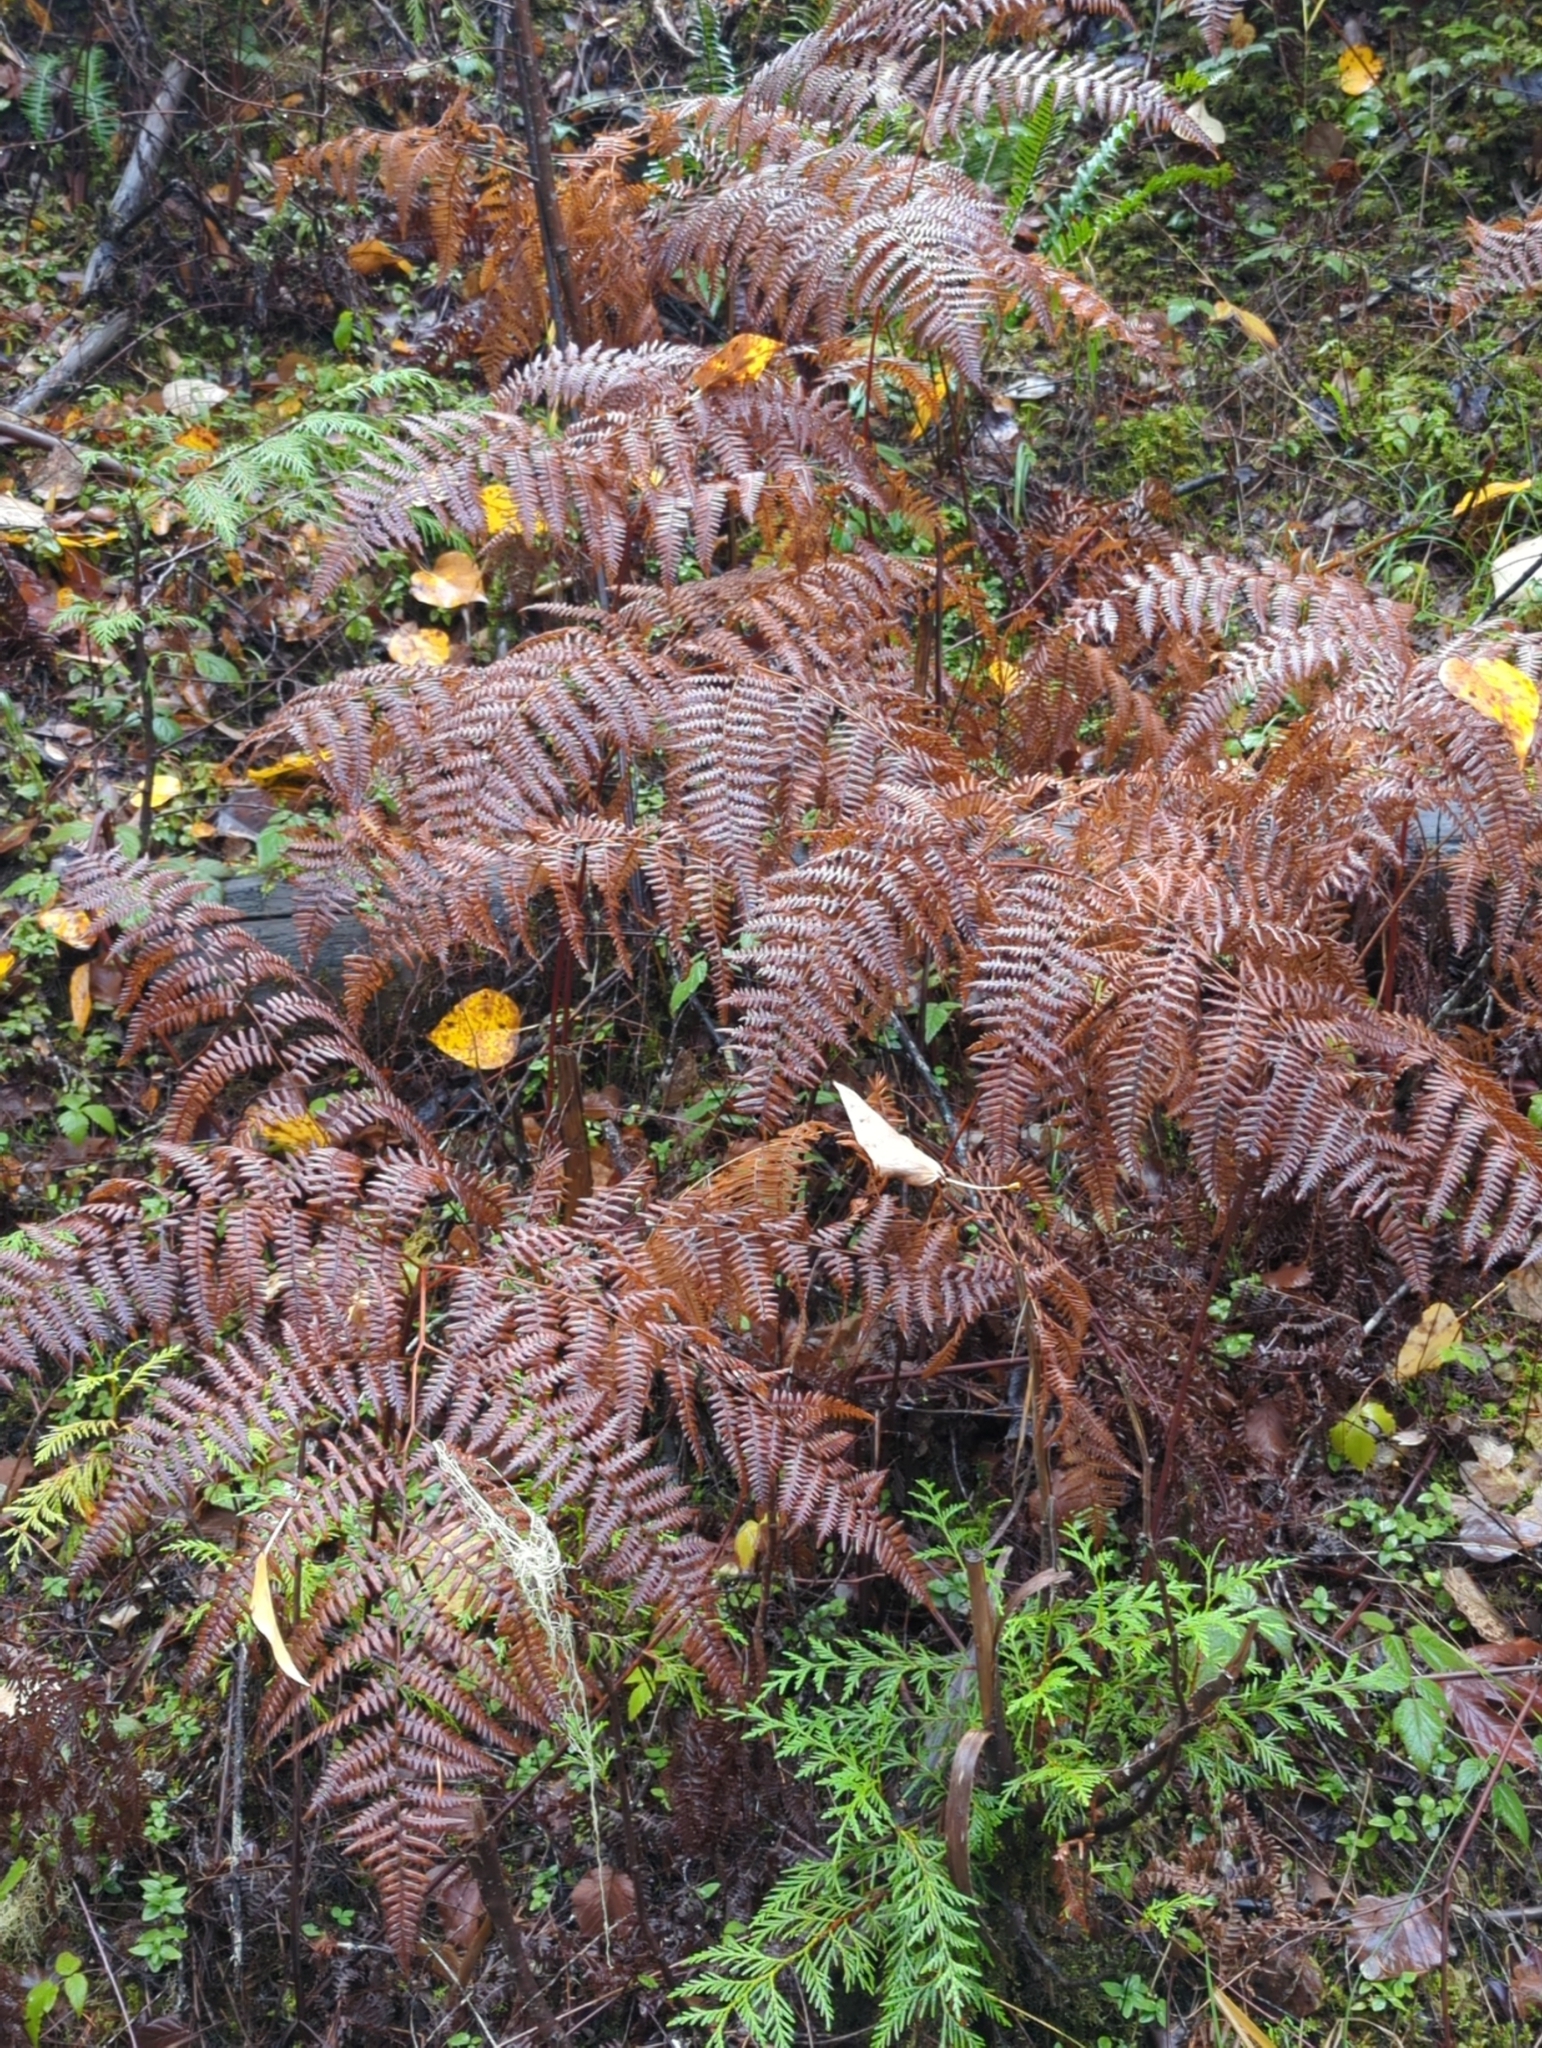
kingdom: Plantae
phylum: Tracheophyta
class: Polypodiopsida
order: Polypodiales
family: Dennstaedtiaceae
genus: Pteridium
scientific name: Pteridium aquilinum
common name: Bracken
